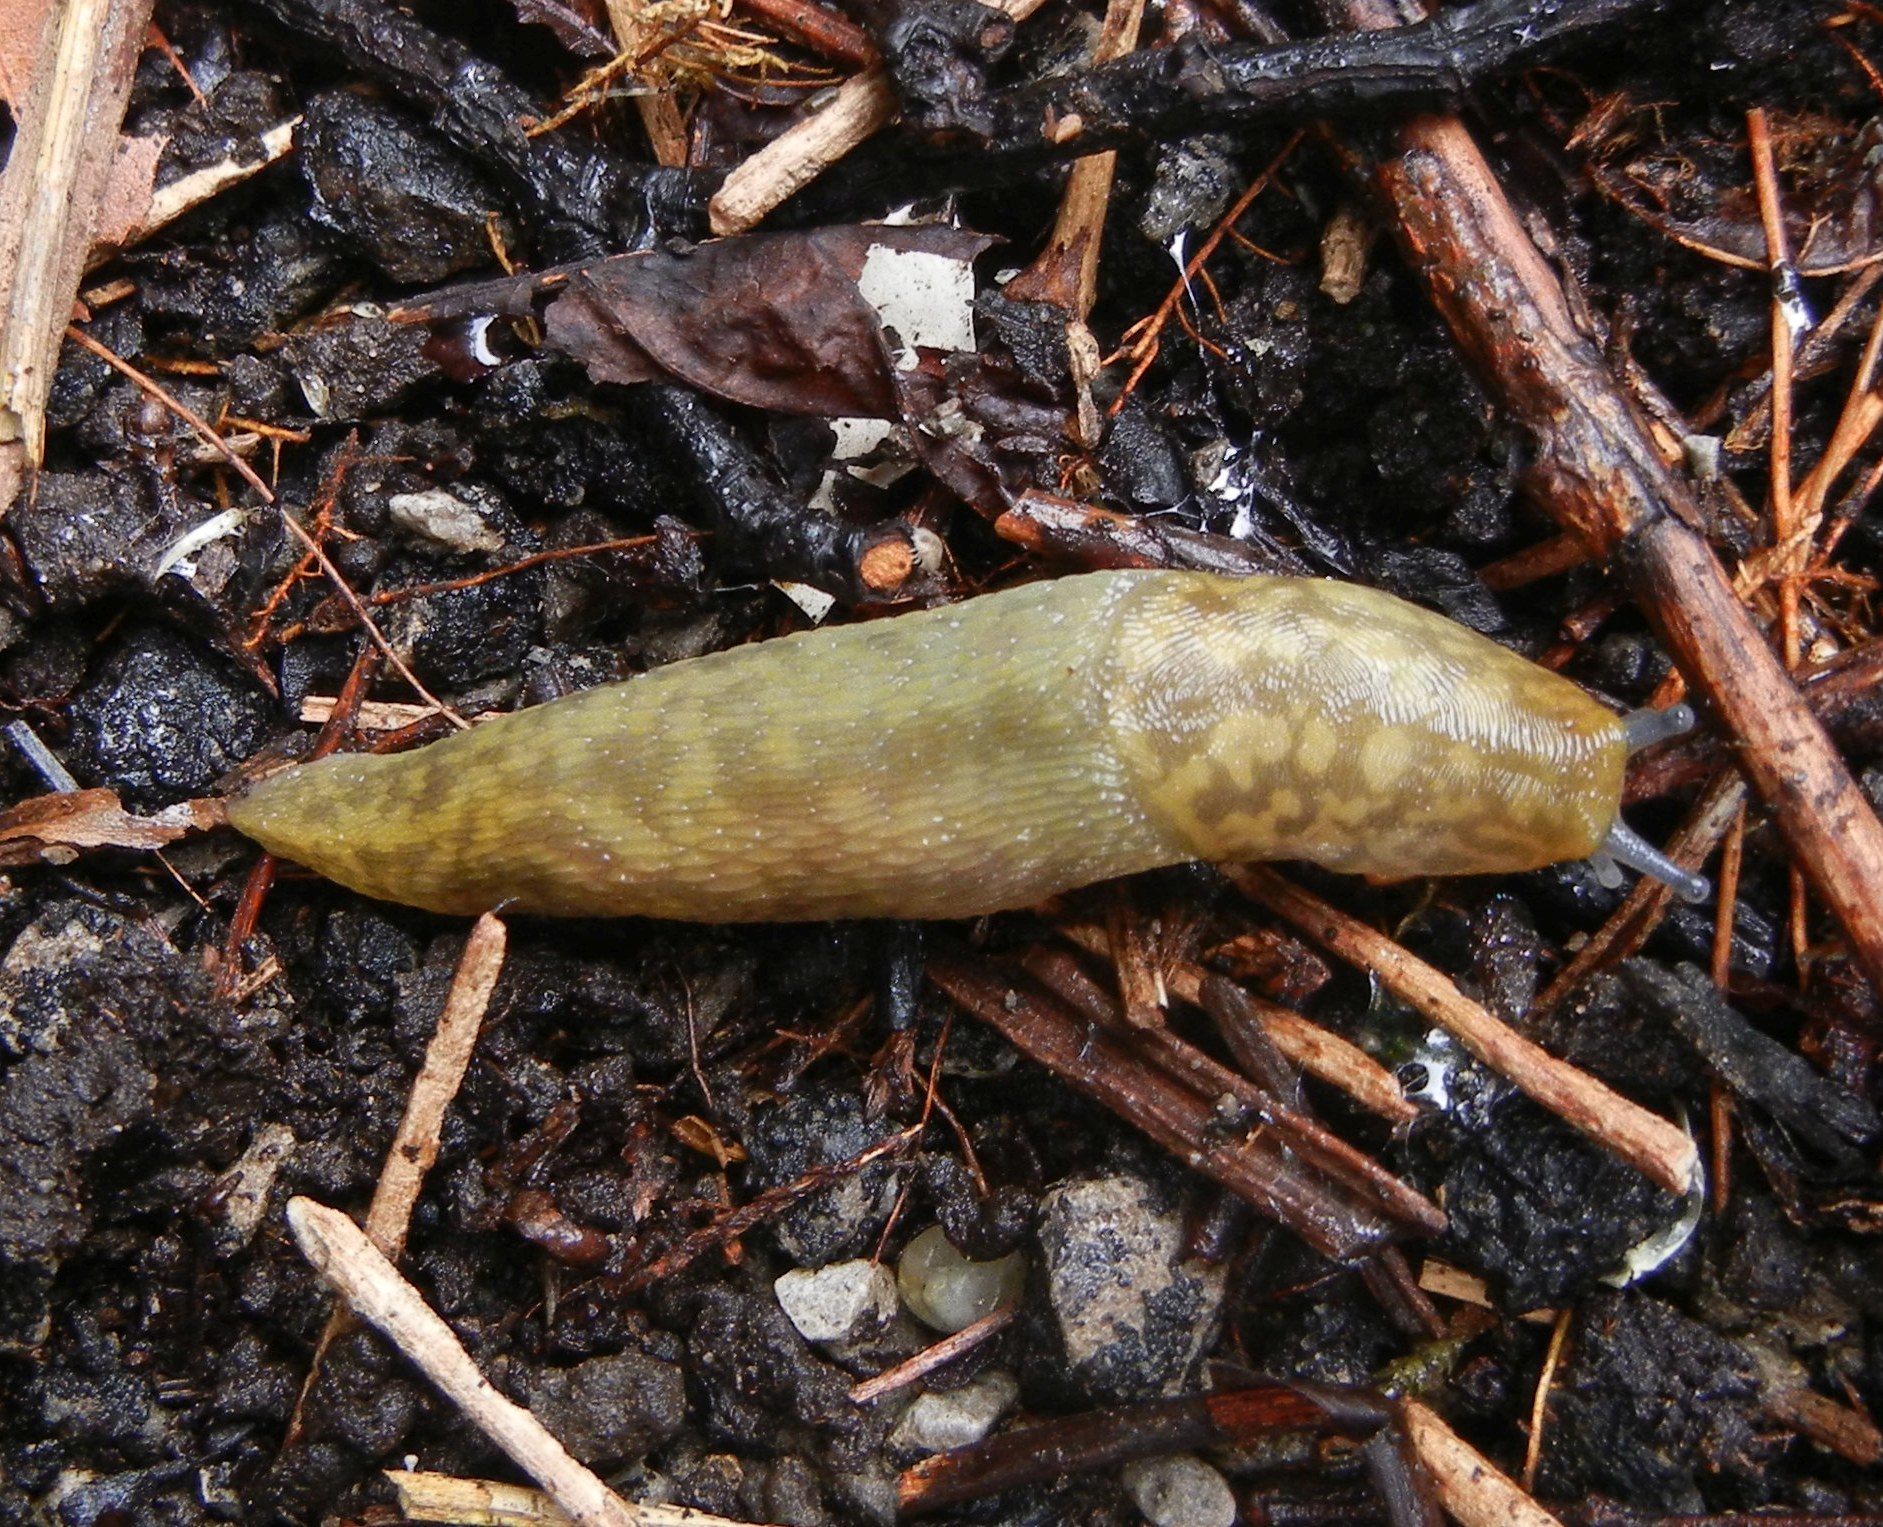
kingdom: Animalia
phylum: Mollusca
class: Gastropoda
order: Stylommatophora
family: Limacidae
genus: Limacus
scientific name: Limacus maculatus
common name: Irish yellow slug
